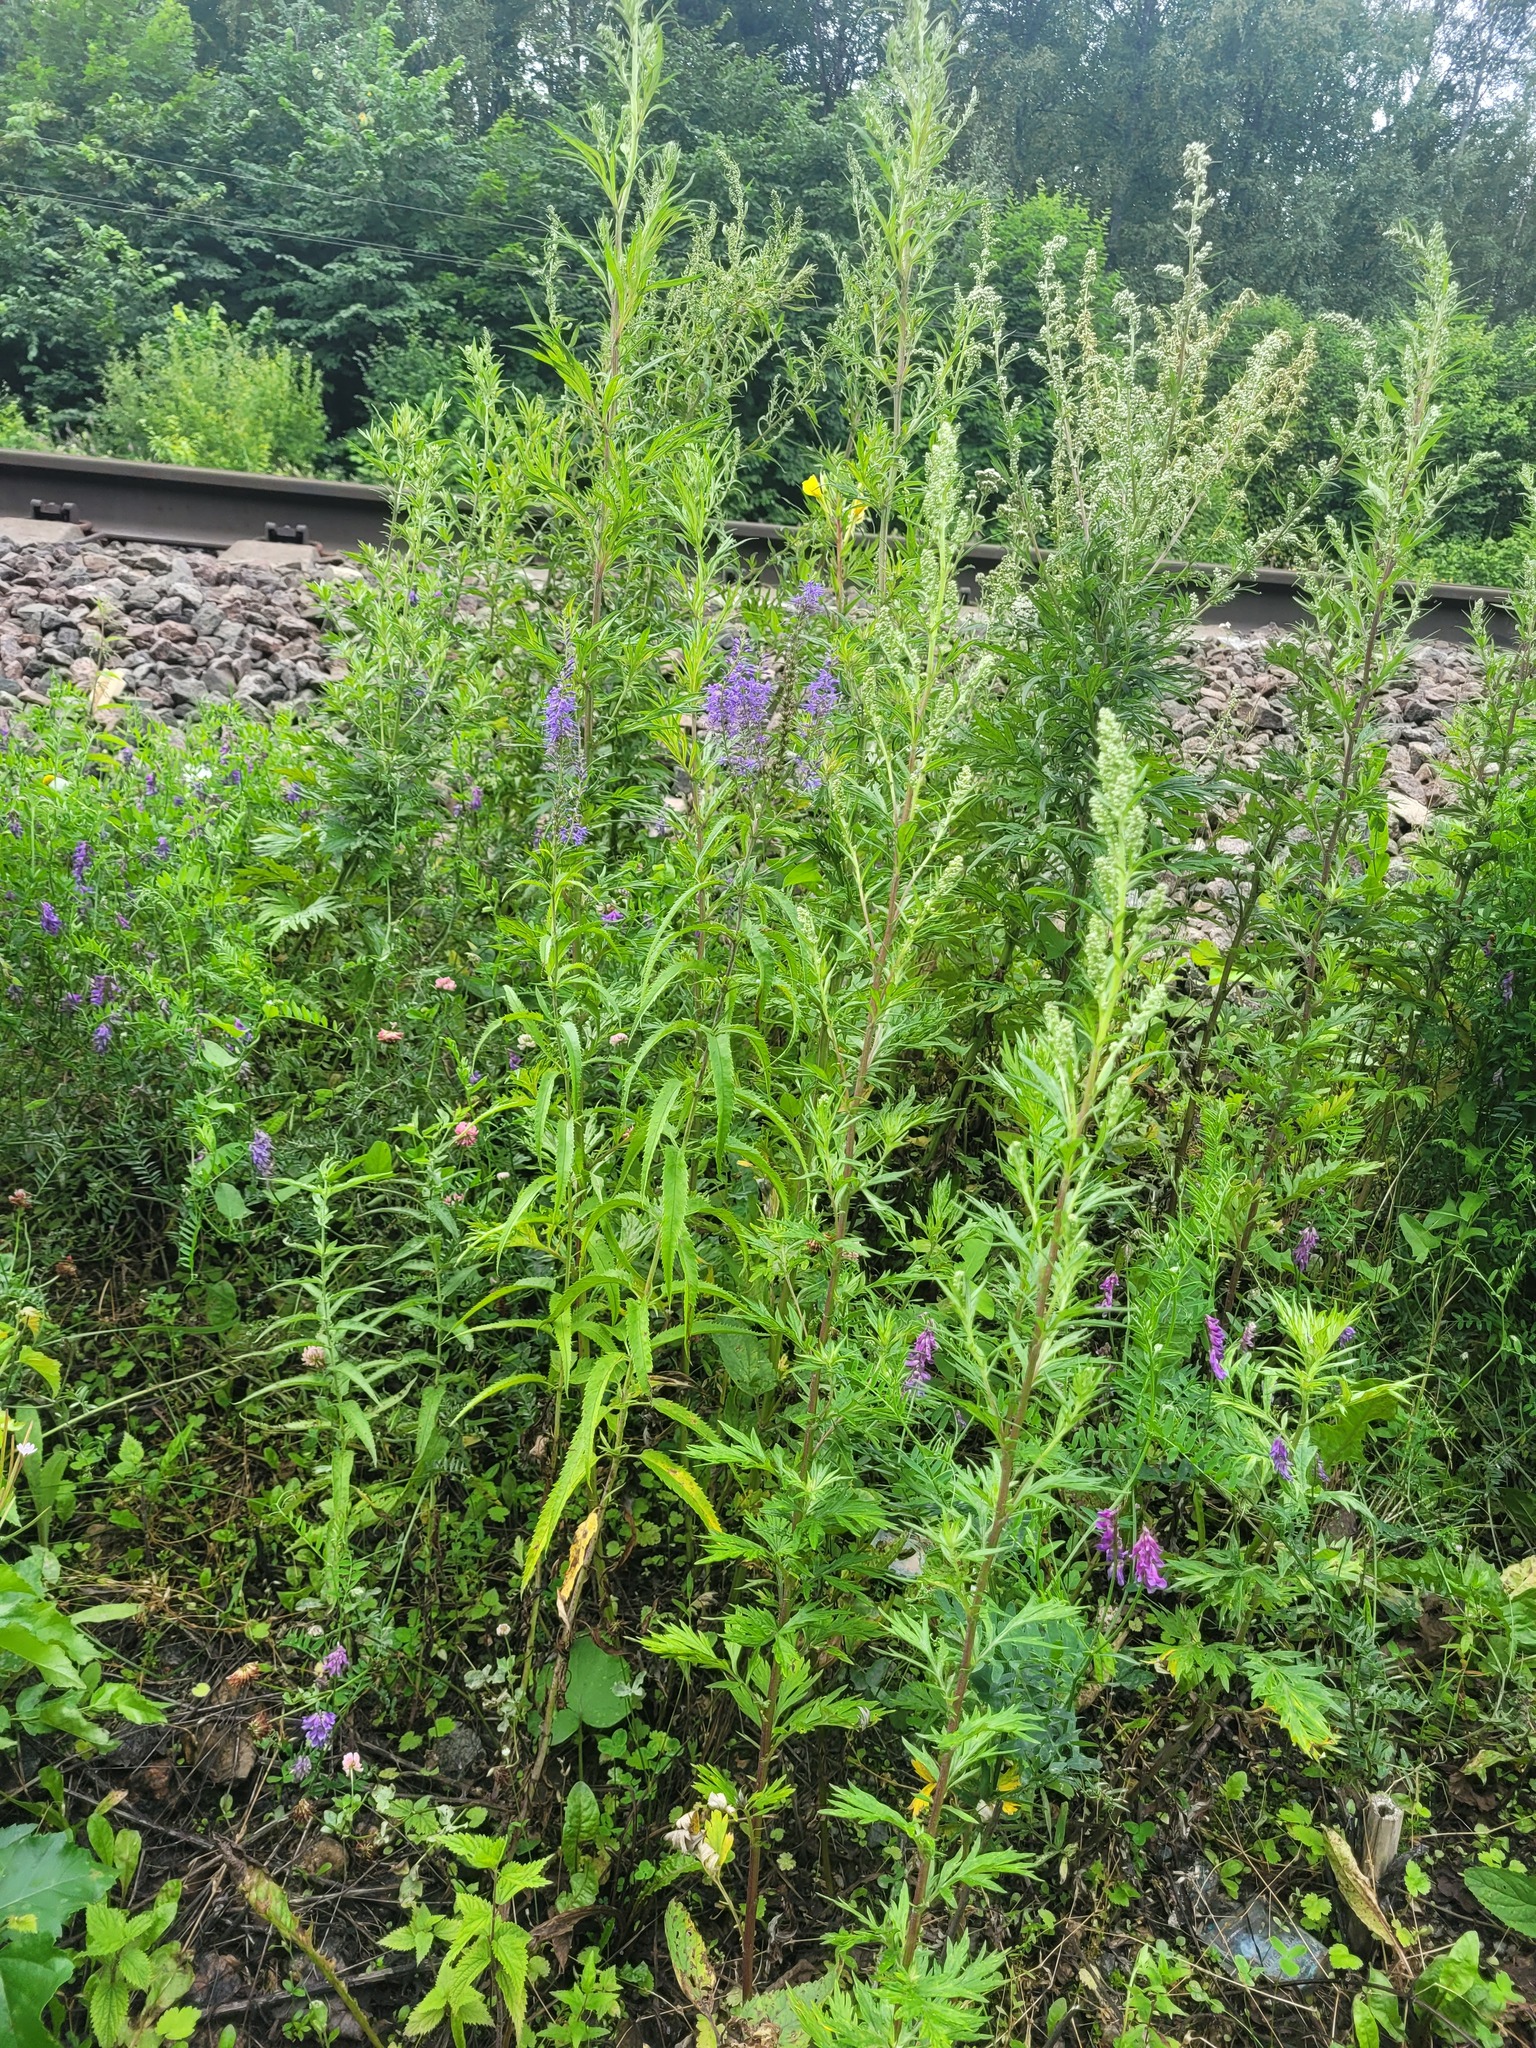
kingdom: Plantae
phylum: Tracheophyta
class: Magnoliopsida
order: Lamiales
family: Plantaginaceae
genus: Veronica
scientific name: Veronica longifolia
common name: Garden speedwell
